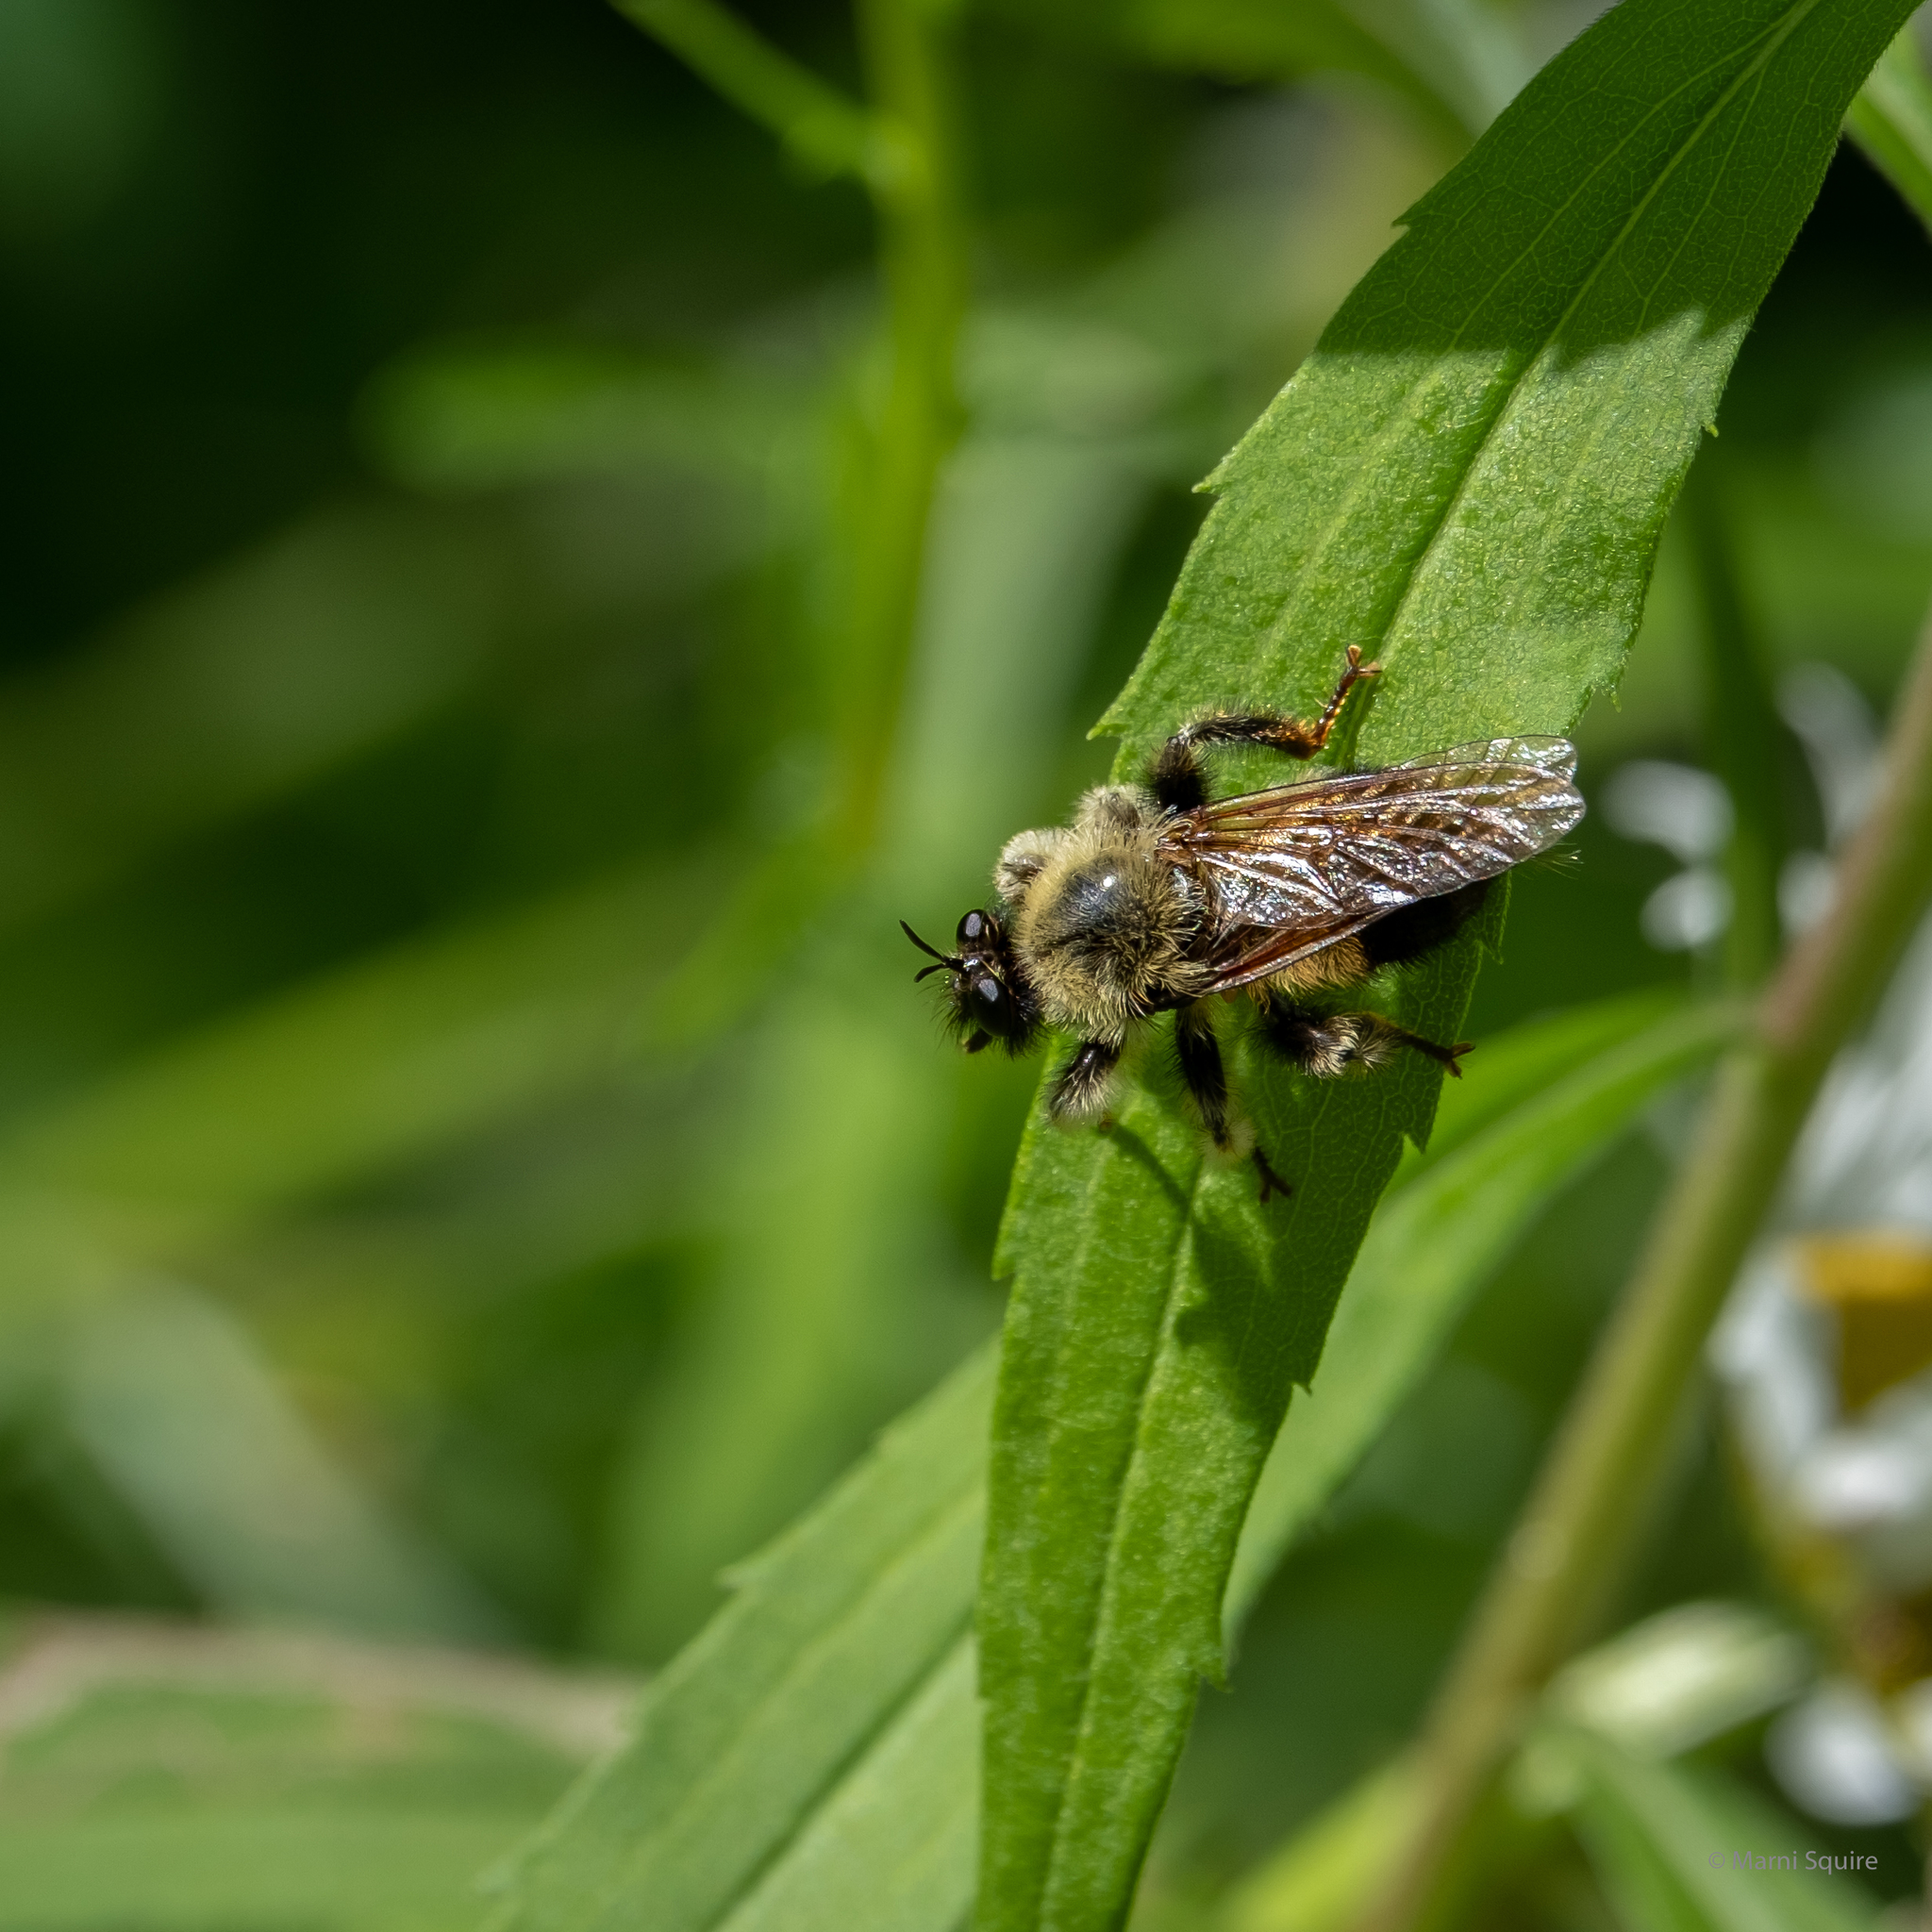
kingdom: Animalia
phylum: Arthropoda
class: Insecta
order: Diptera
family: Asilidae
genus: Laphria
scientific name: Laphria sacrator
